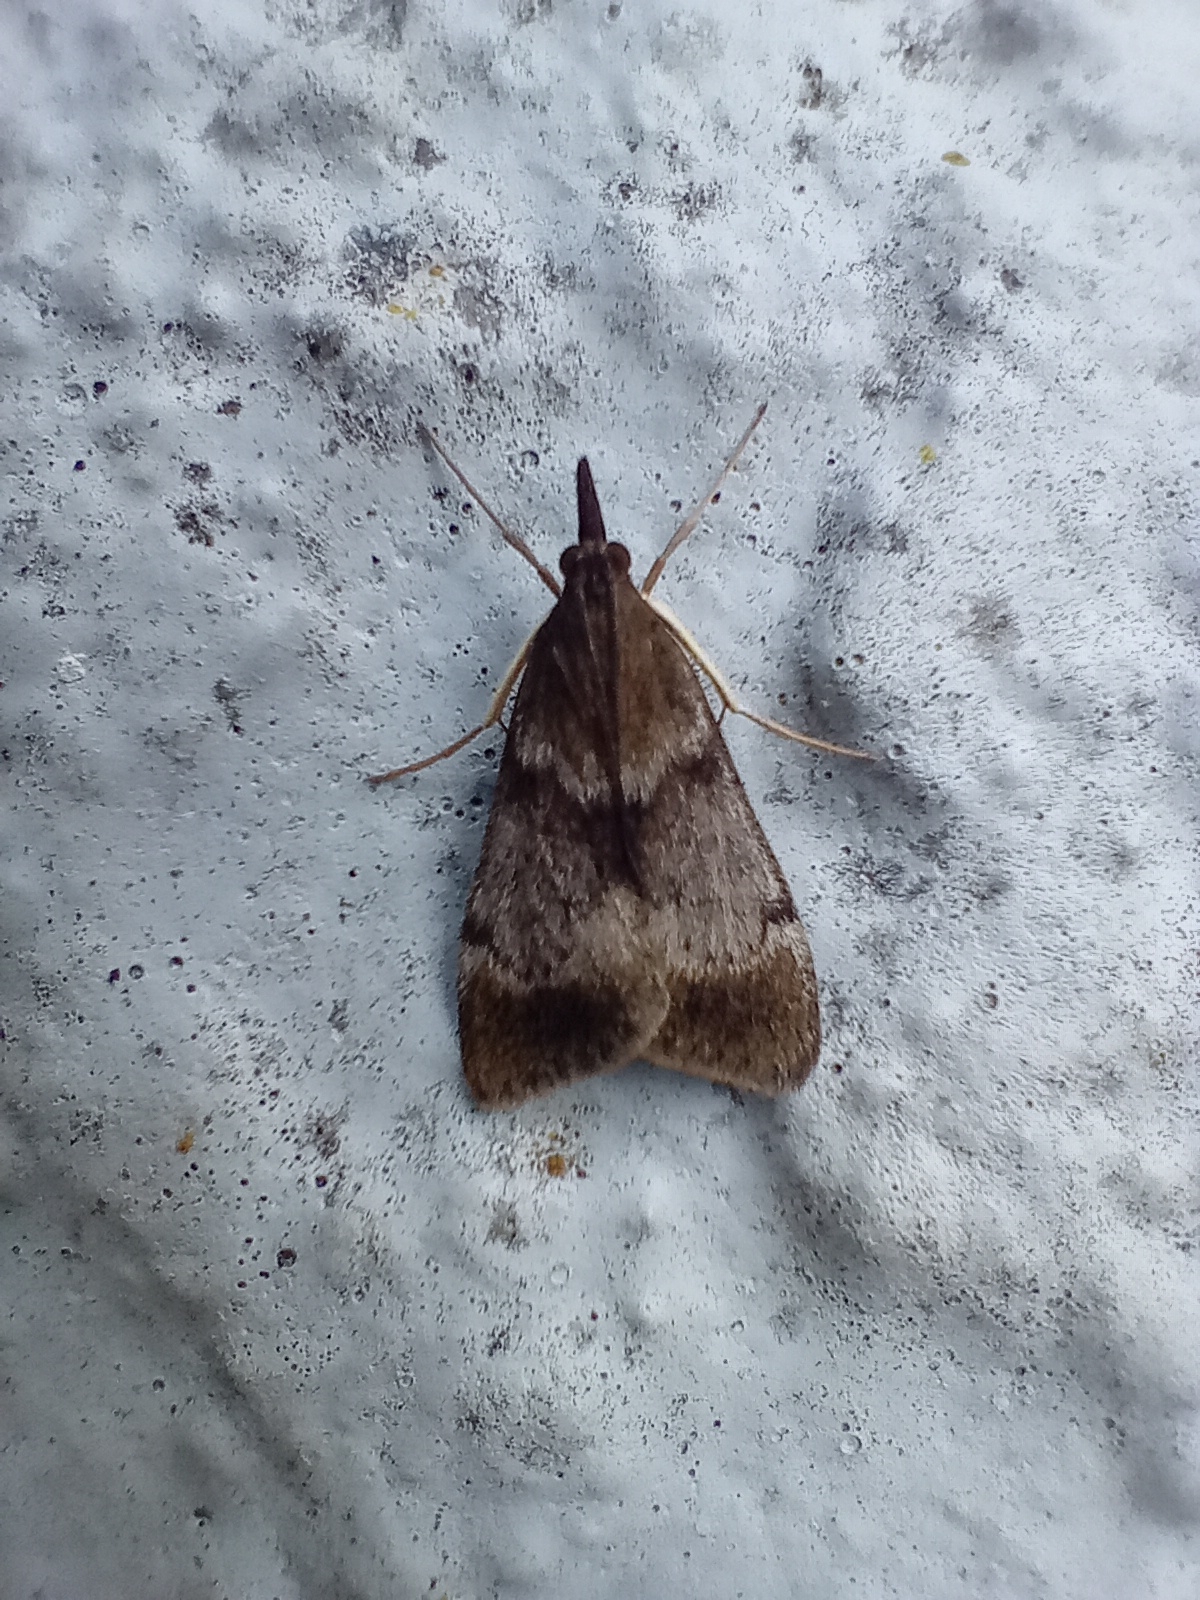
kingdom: Animalia
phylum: Arthropoda
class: Insecta
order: Lepidoptera
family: Crambidae
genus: Uresiphita
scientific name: Uresiphita
